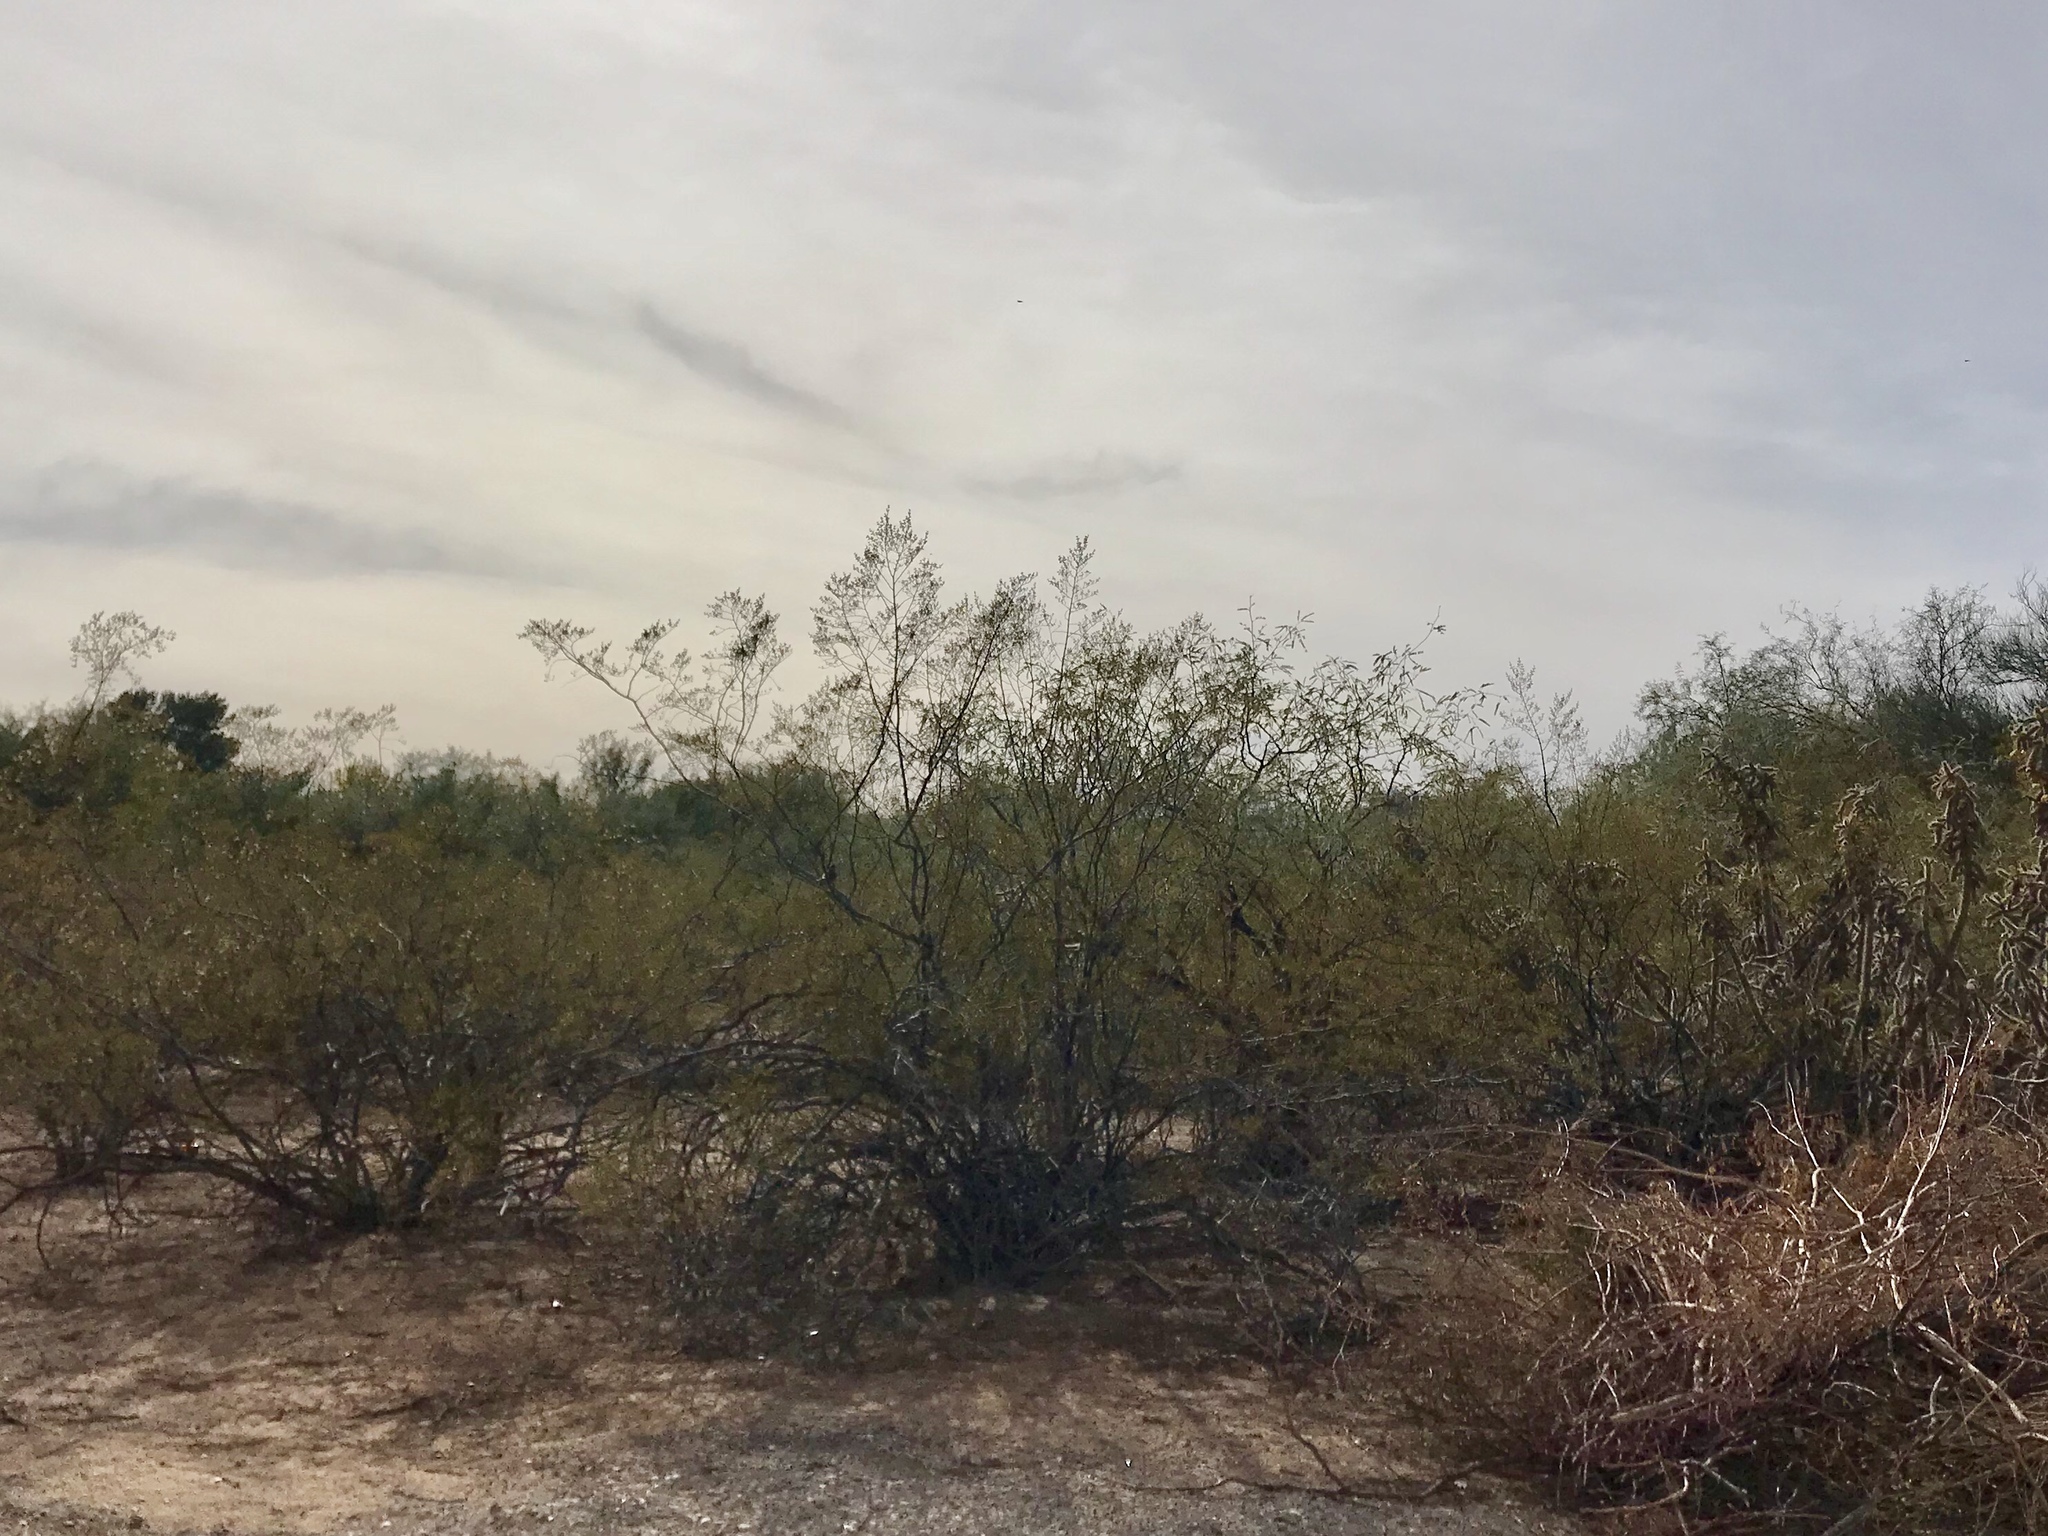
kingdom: Plantae
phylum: Tracheophyta
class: Magnoliopsida
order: Zygophyllales
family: Zygophyllaceae
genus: Larrea
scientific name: Larrea tridentata
